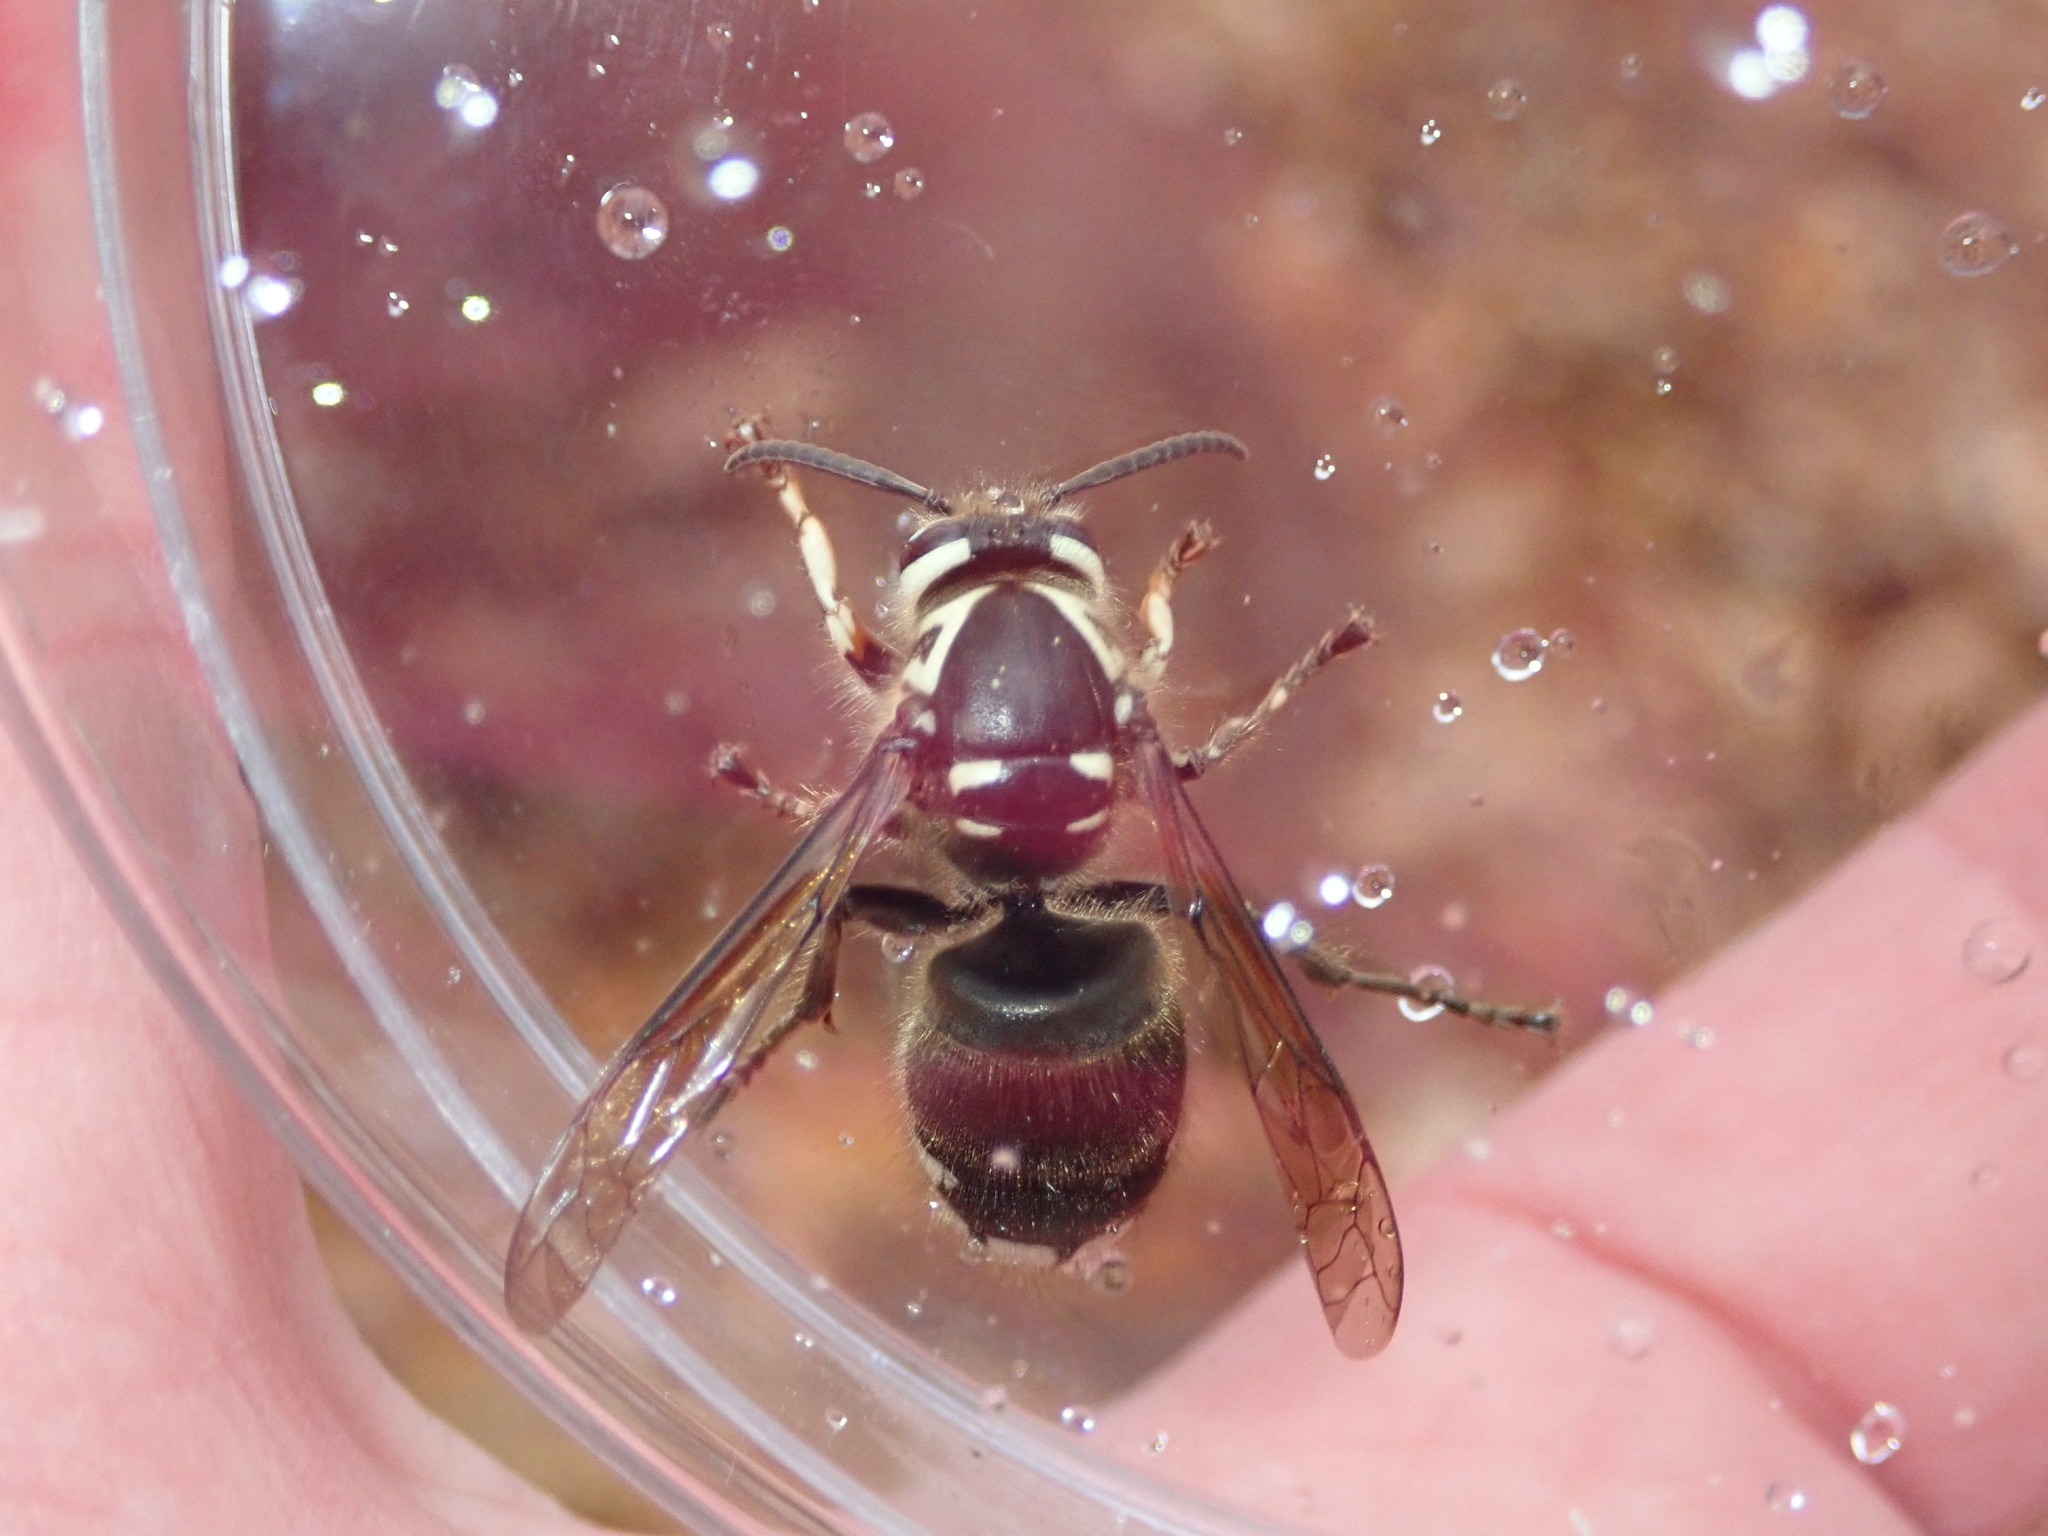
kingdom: Animalia
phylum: Arthropoda
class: Insecta
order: Hymenoptera
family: Vespidae
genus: Dolichovespula
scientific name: Dolichovespula maculata
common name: Bald-faced hornet
